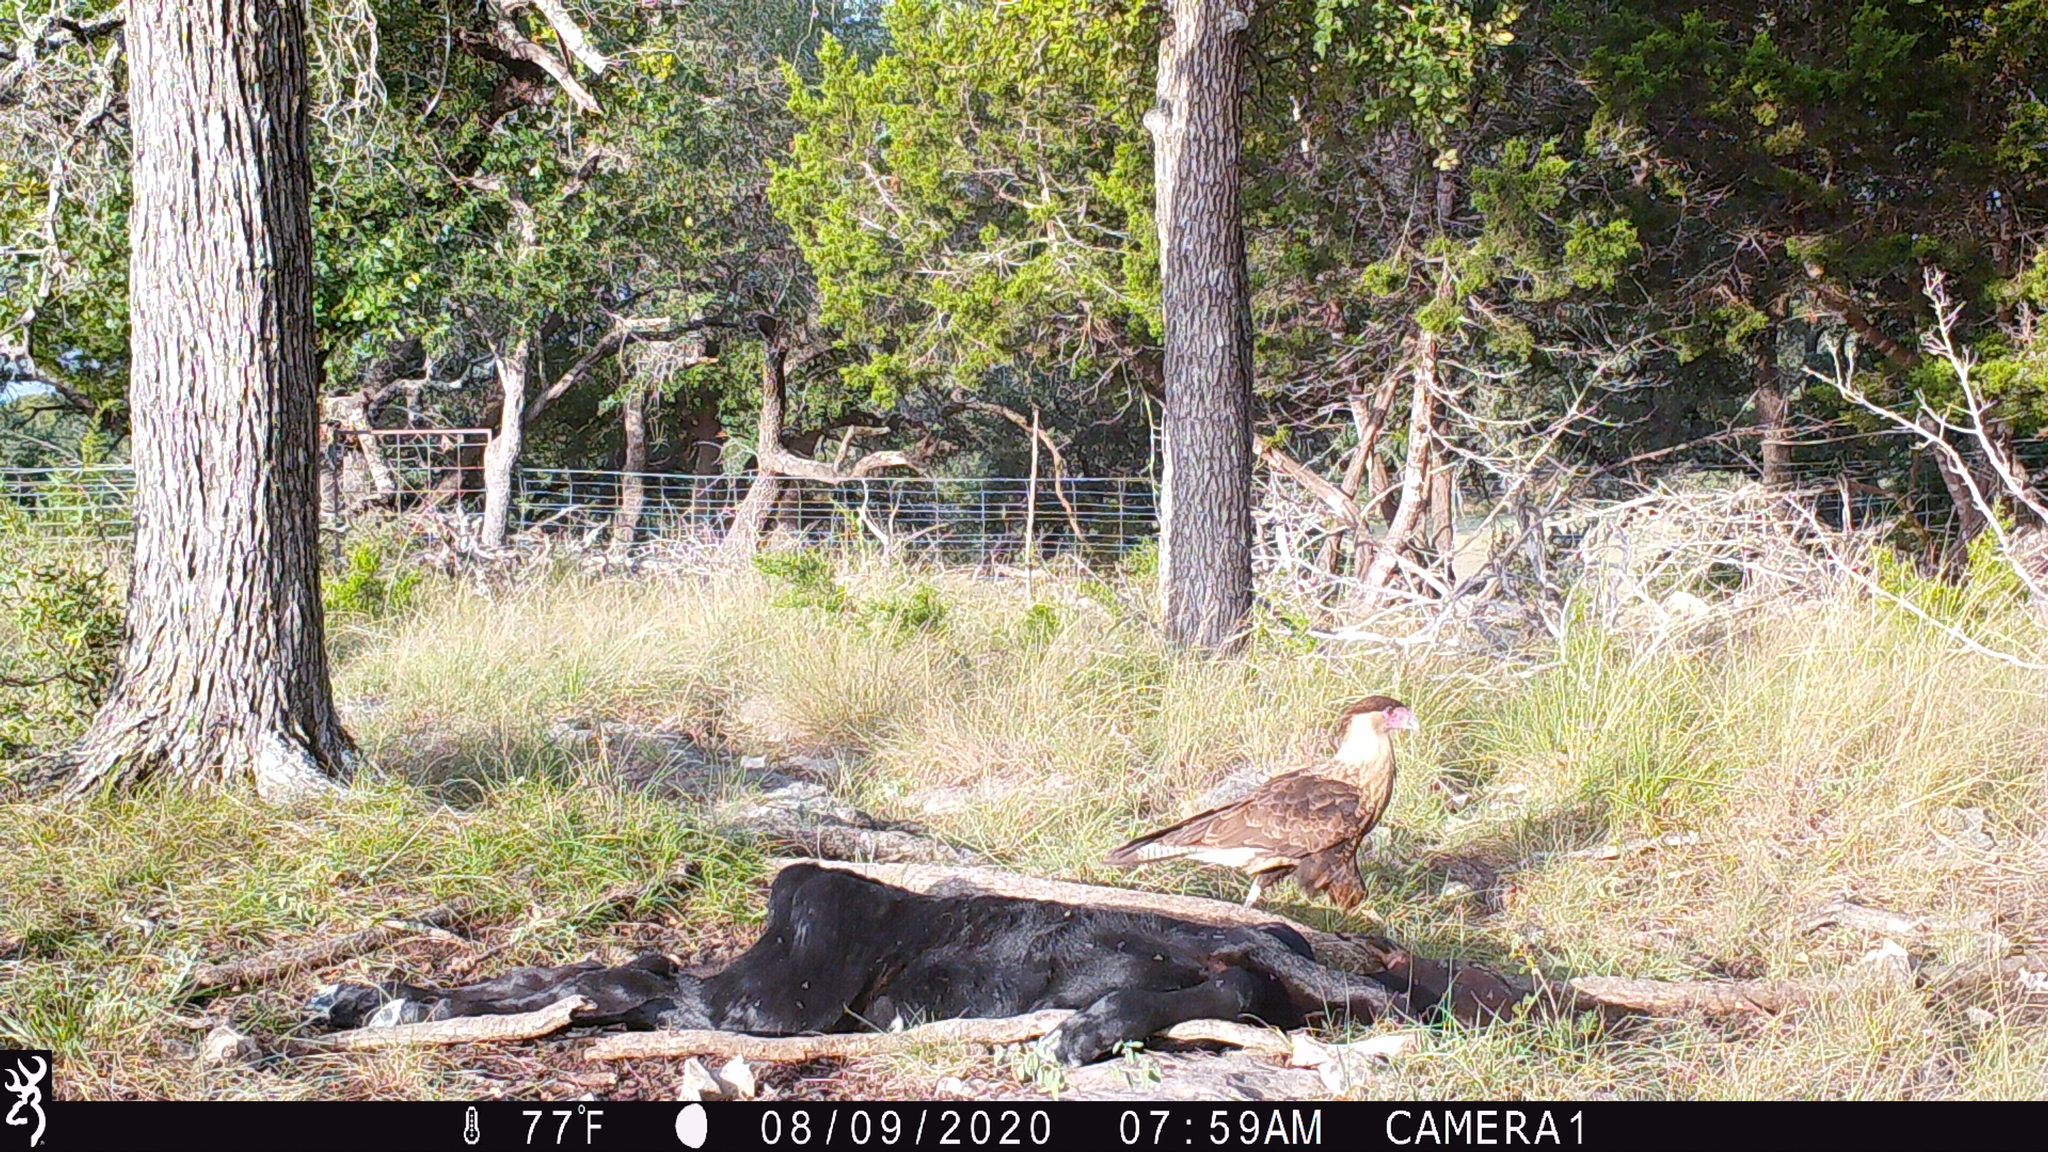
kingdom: Animalia
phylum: Chordata
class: Aves
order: Falconiformes
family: Falconidae
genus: Caracara
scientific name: Caracara plancus
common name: Southern caracara
